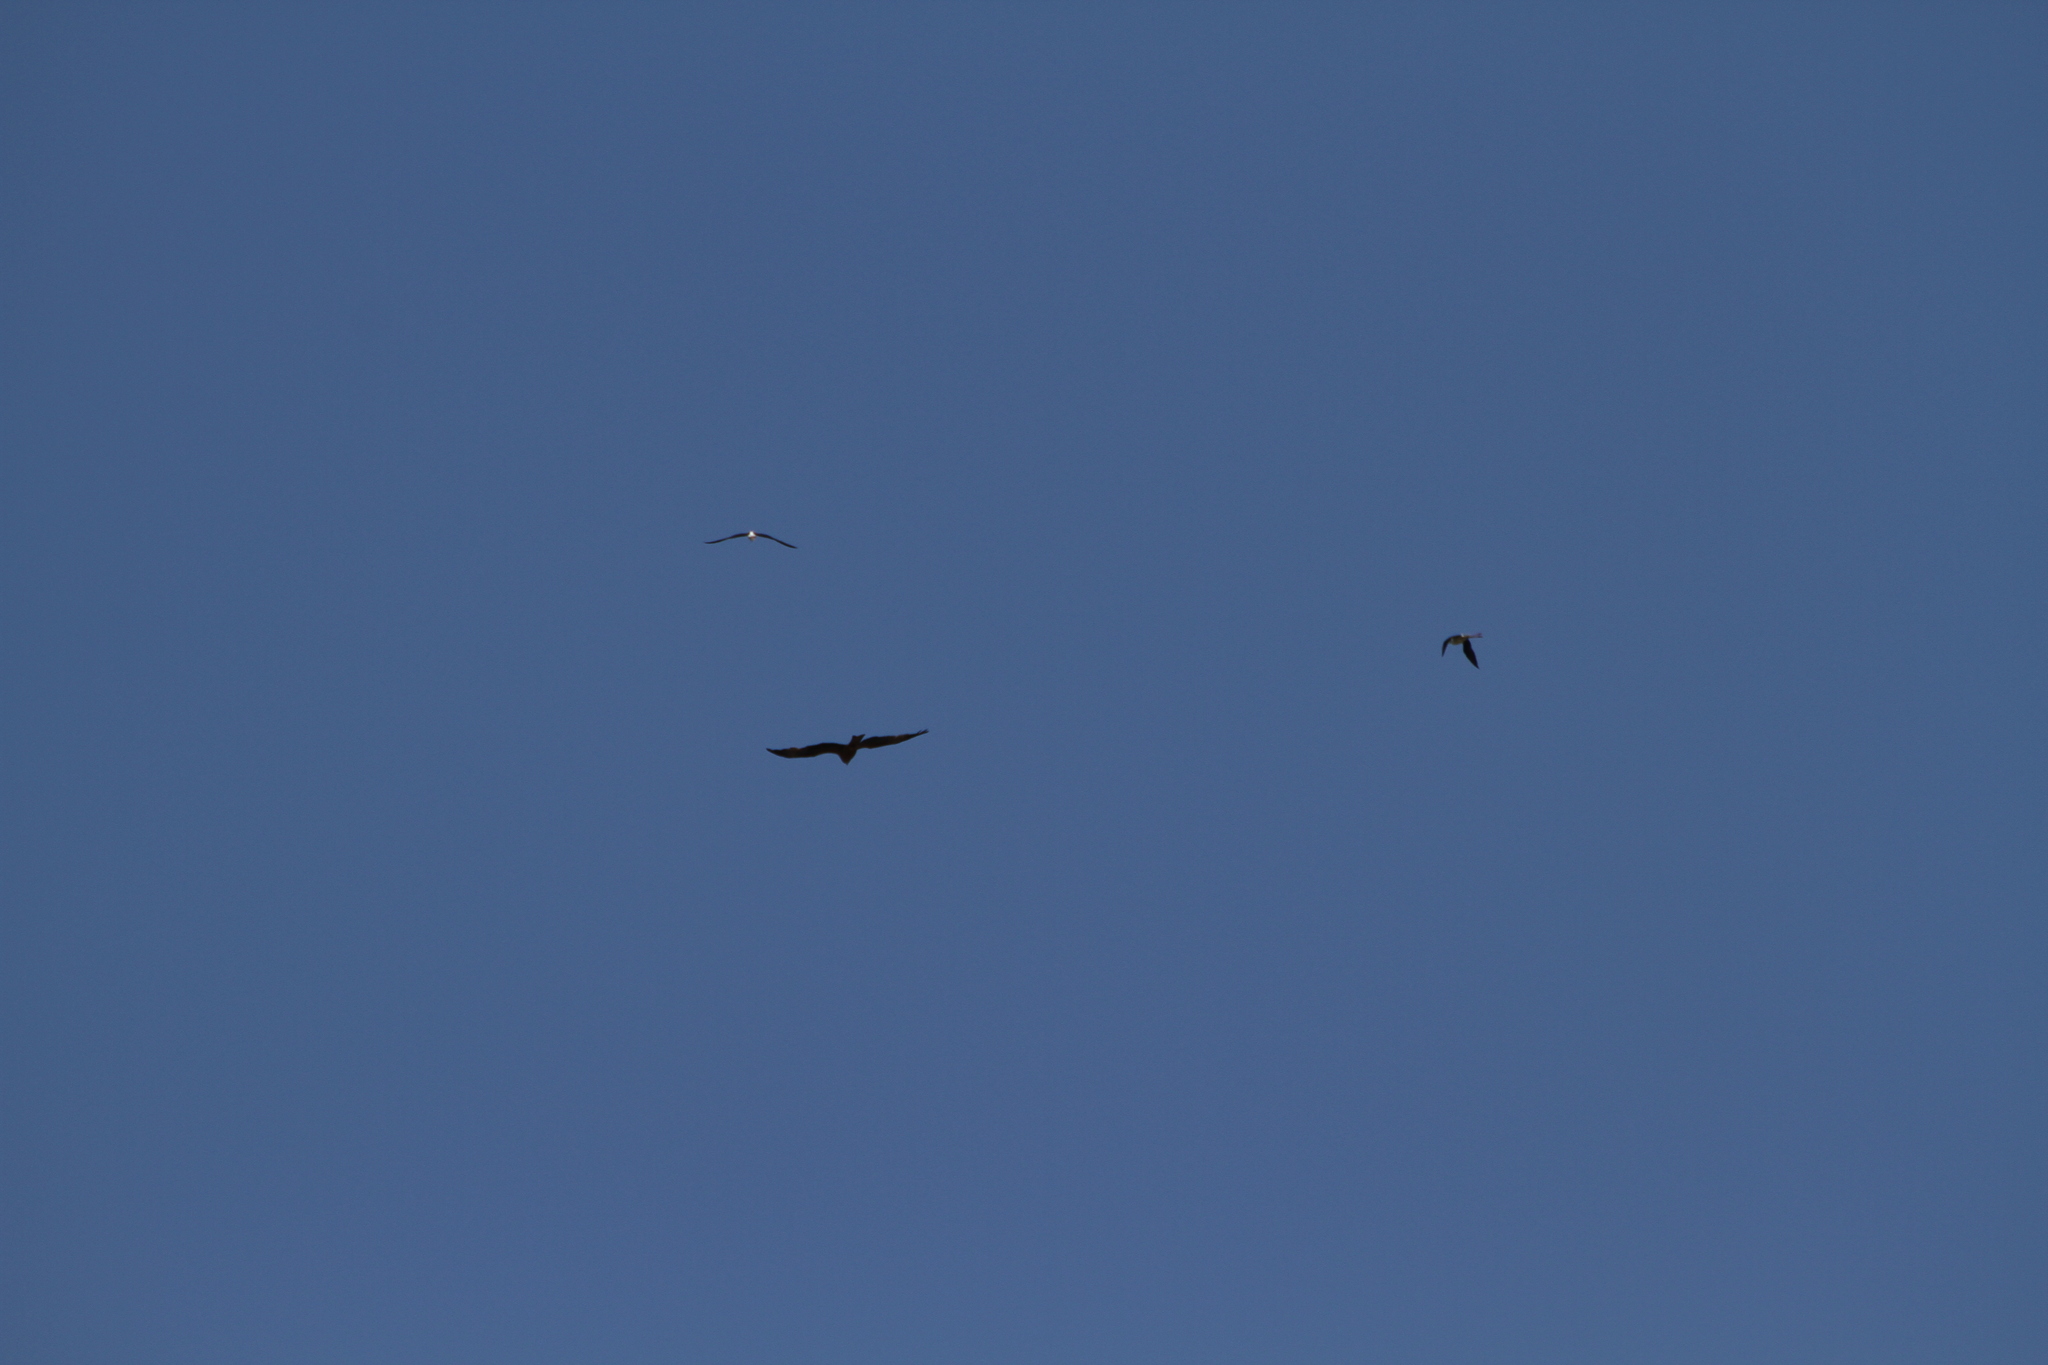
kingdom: Animalia
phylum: Chordata
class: Aves
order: Charadriiformes
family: Recurvirostridae
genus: Himantopus
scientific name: Himantopus himantopus
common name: Black-winged stilt
